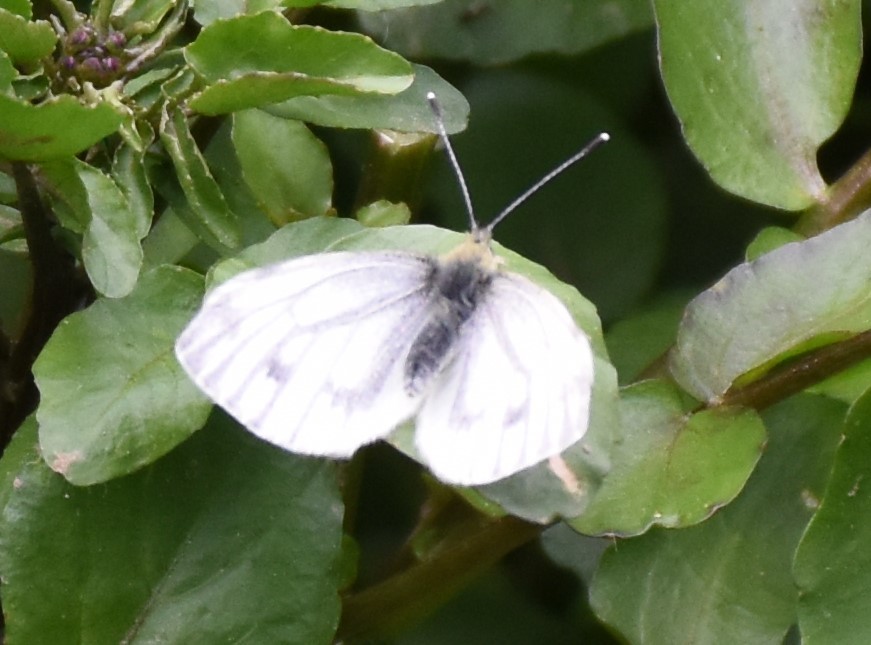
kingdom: Animalia
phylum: Arthropoda
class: Insecta
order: Lepidoptera
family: Pieridae
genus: Pieris
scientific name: Pieris napi
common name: Green-veined white
